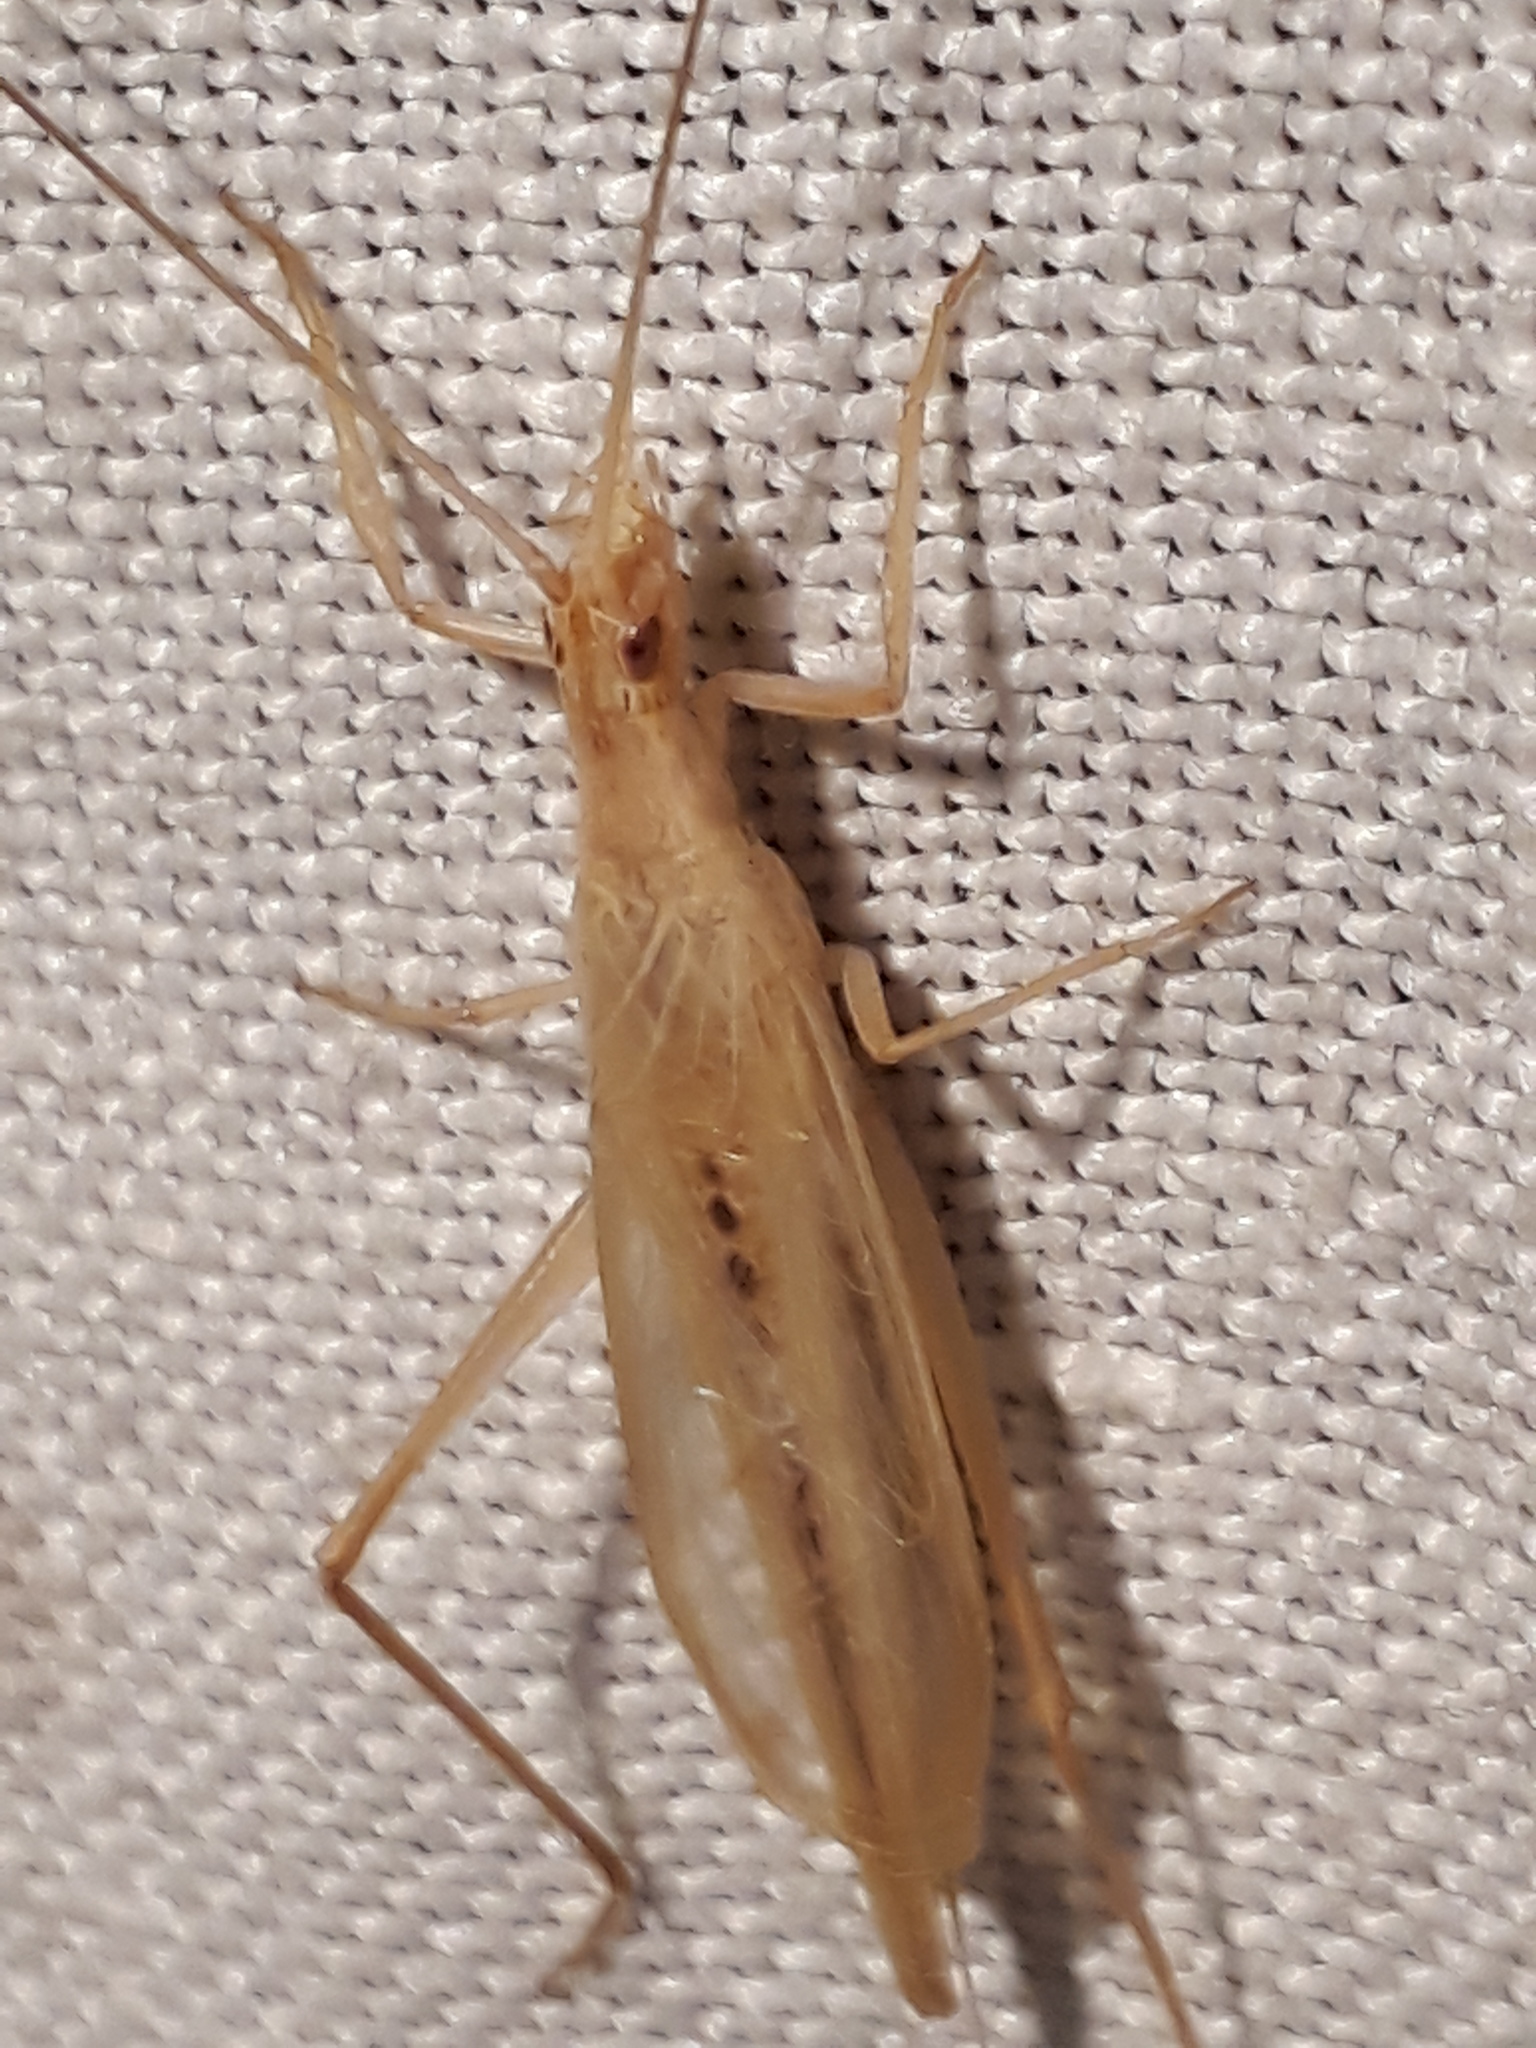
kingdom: Animalia
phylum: Arthropoda
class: Insecta
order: Orthoptera
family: Gryllidae
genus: Oecanthus
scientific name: Oecanthus dulcisonans
